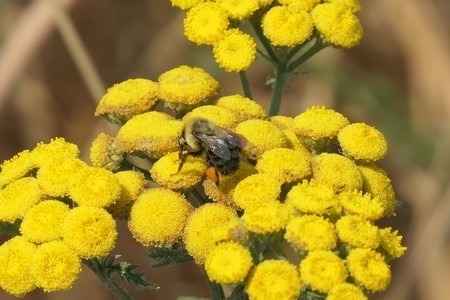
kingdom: Animalia
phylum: Arthropoda
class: Insecta
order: Hymenoptera
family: Apidae
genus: Bombus
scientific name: Bombus impatiens
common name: Common eastern bumble bee
